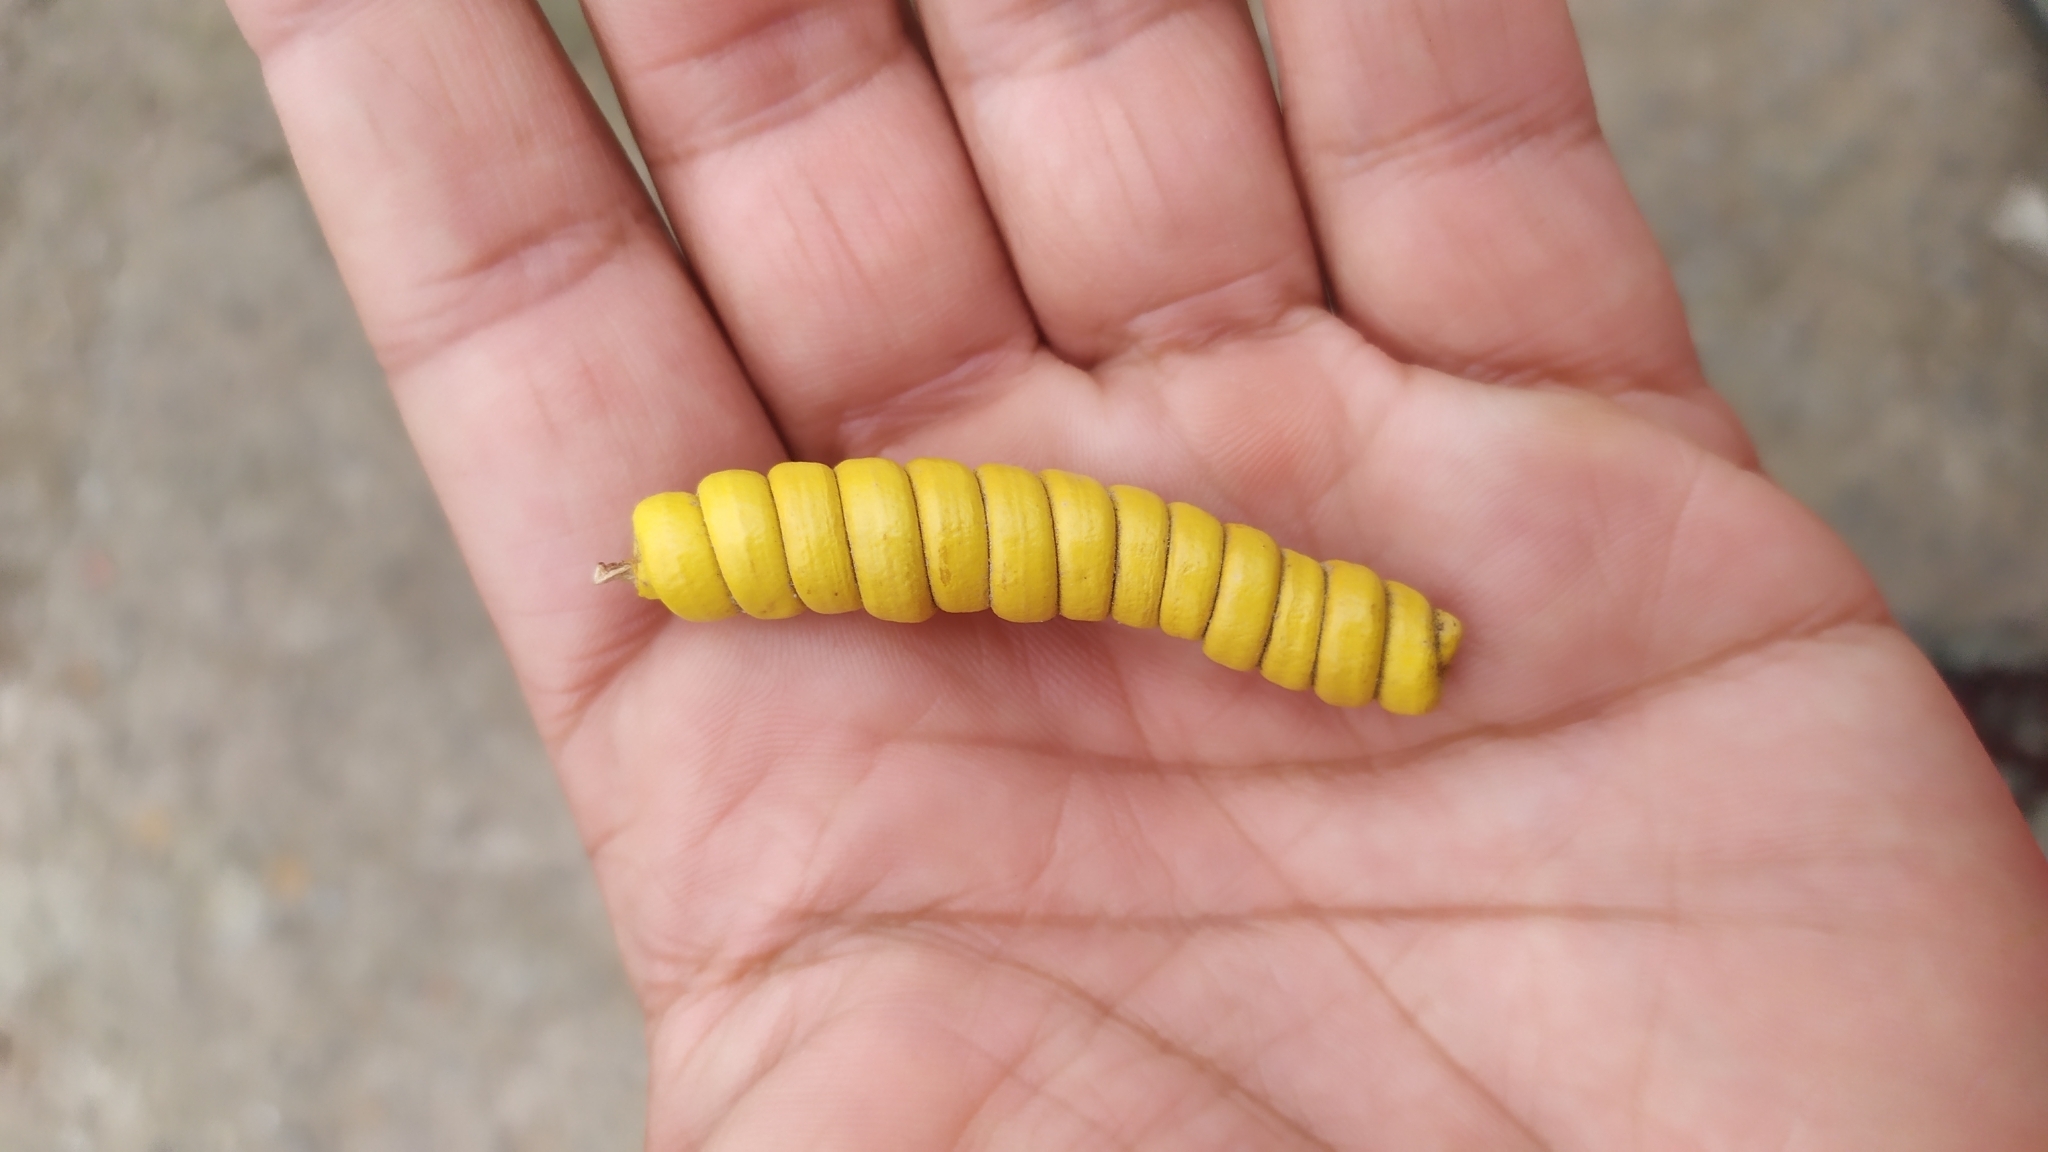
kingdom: Plantae
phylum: Tracheophyta
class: Magnoliopsida
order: Fabales
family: Fabaceae
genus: Prosopis
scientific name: Prosopis strombulifera
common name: Creeping mesquite
